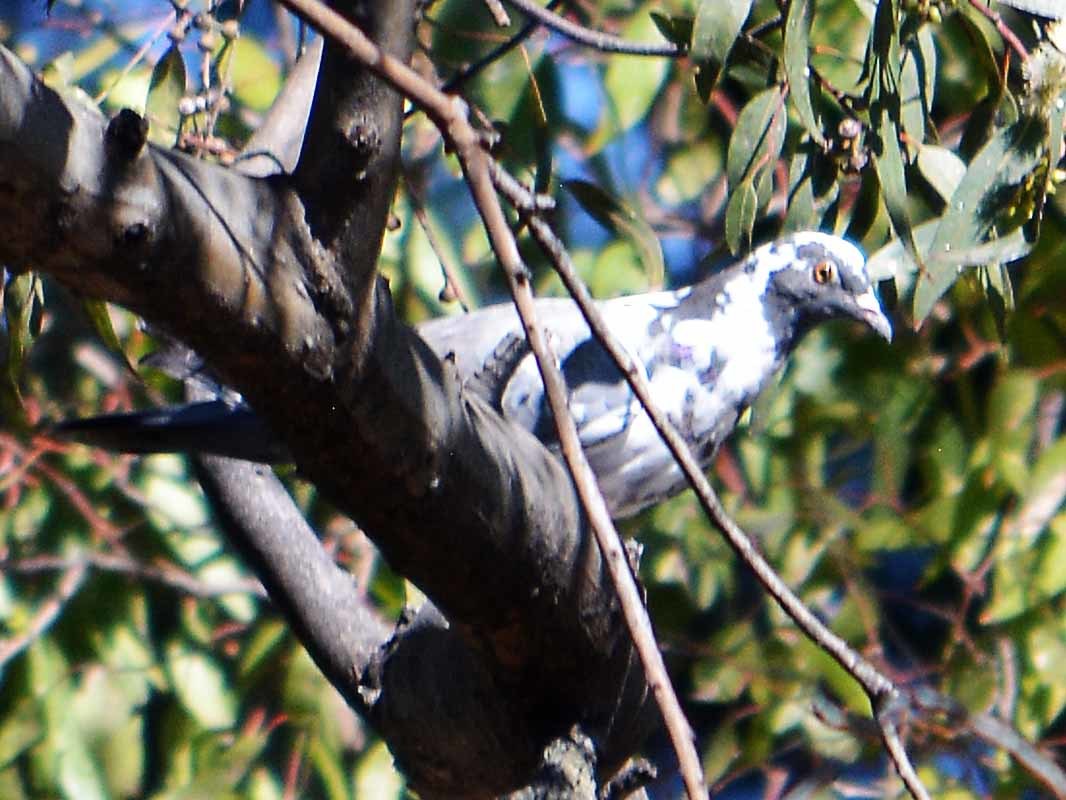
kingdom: Animalia
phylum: Chordata
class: Aves
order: Columbiformes
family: Columbidae
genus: Columba
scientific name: Columba livia
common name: Rock pigeon
